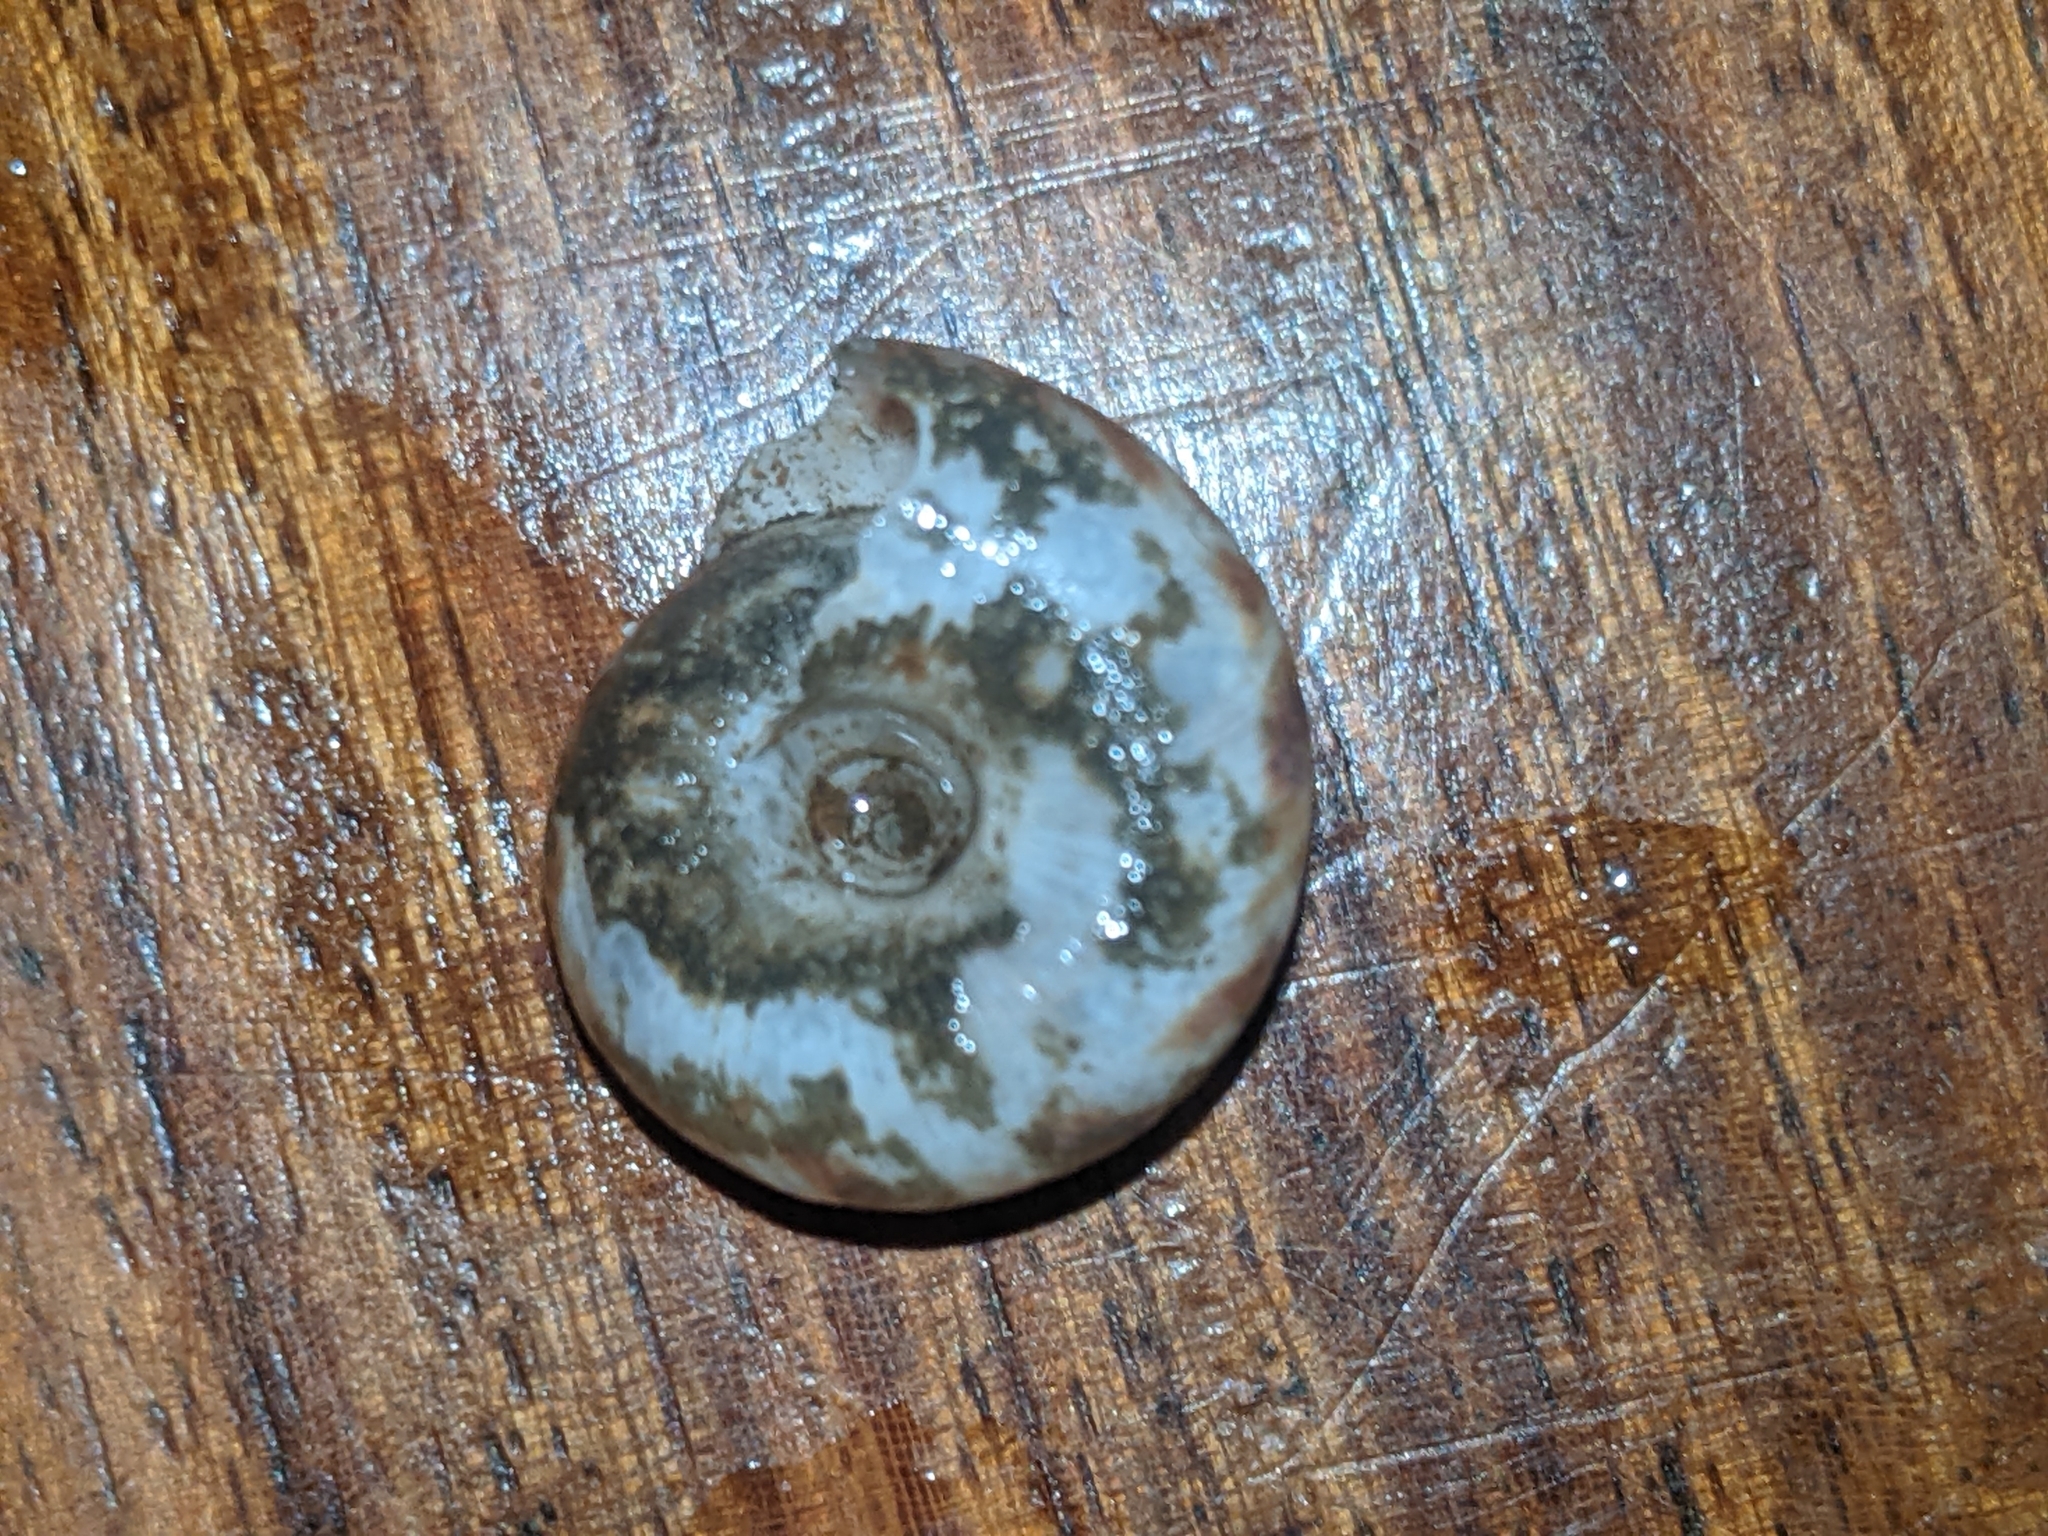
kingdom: Animalia
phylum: Mollusca
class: Gastropoda
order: Stylommatophora
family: Discidae
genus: Anguispira
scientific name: Anguispira alternata
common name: Flamed tigersnail
